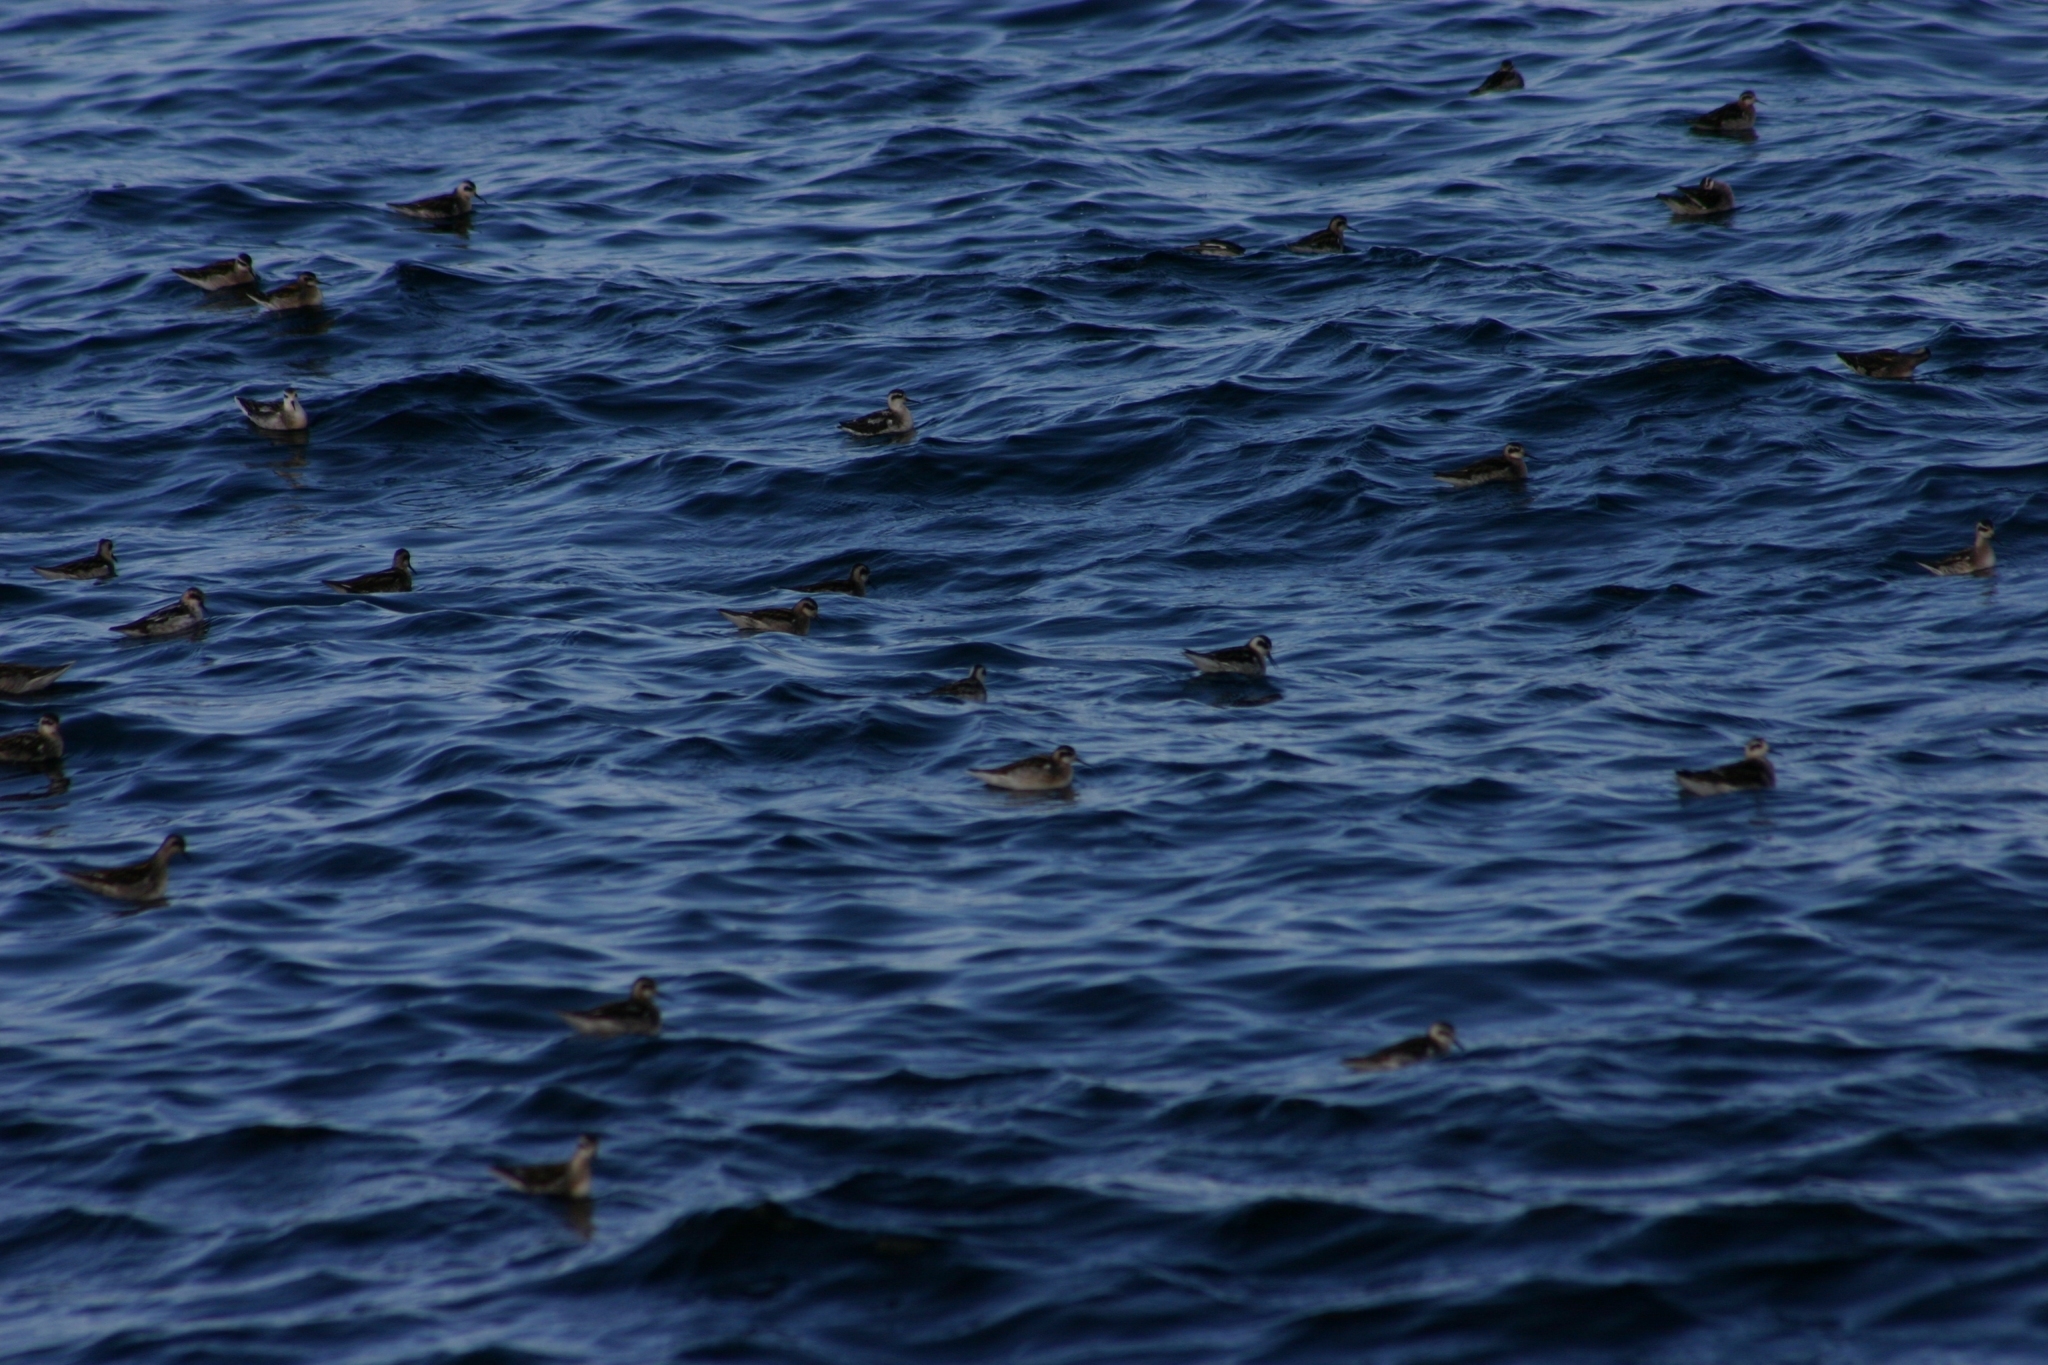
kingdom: Animalia
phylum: Chordata
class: Aves
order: Charadriiformes
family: Scolopacidae
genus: Phalaropus
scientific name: Phalaropus lobatus
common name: Red-necked phalarope
